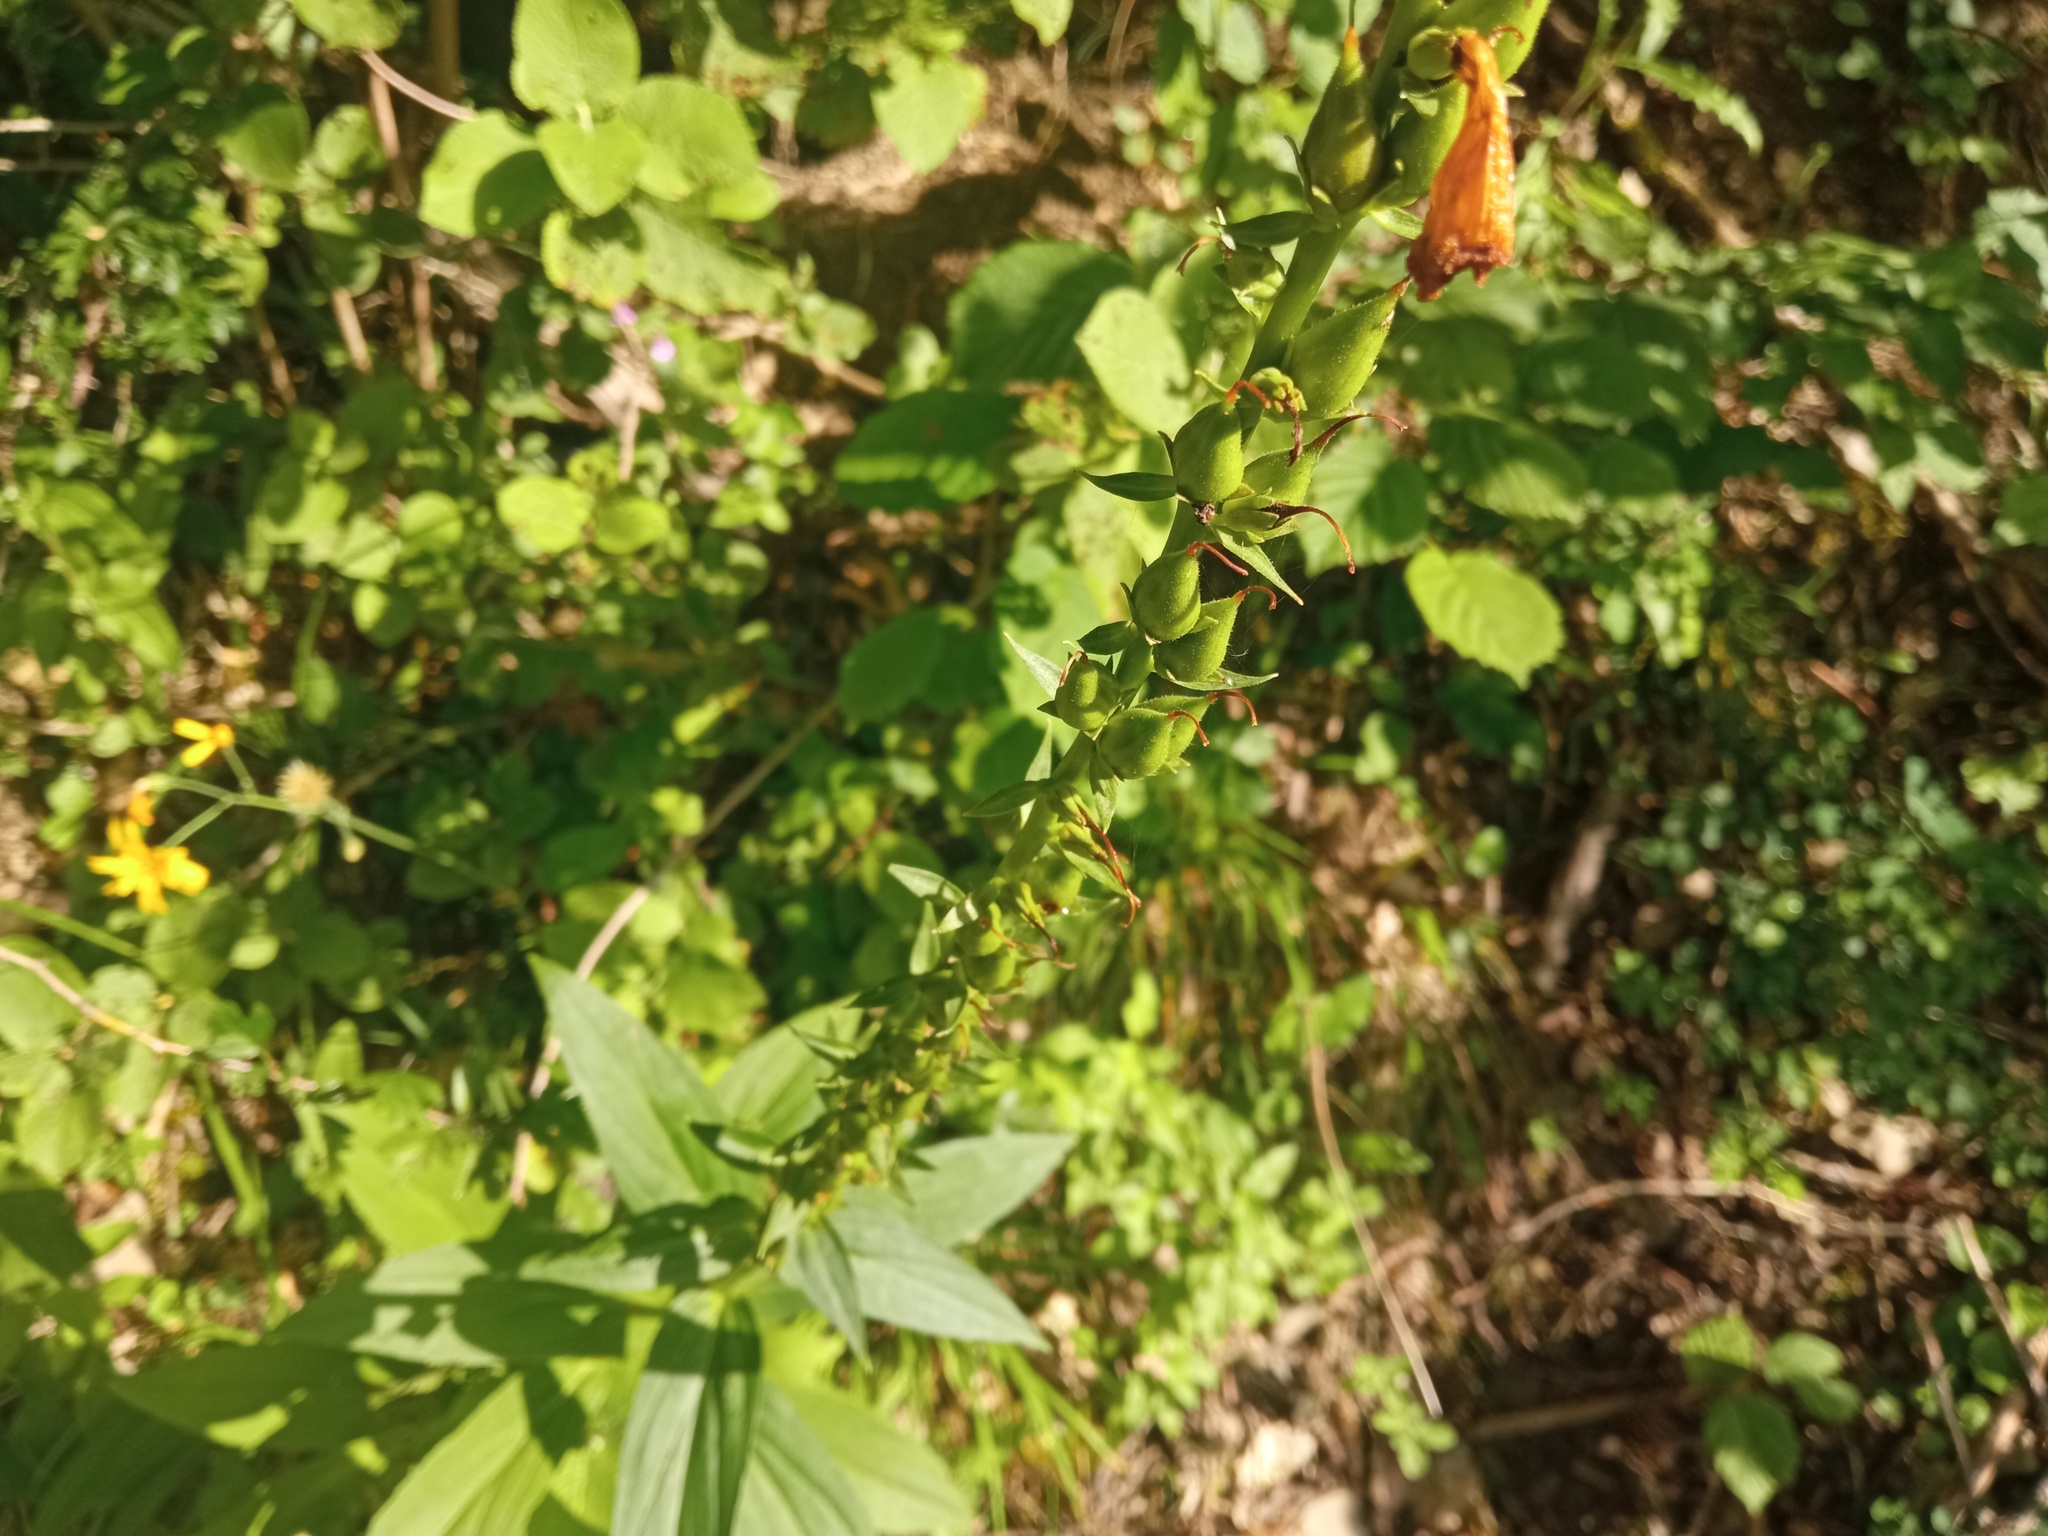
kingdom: Plantae
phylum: Tracheophyta
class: Magnoliopsida
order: Lamiales
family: Plantaginaceae
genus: Digitalis
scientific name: Digitalis lutea
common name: Straw foxglove
